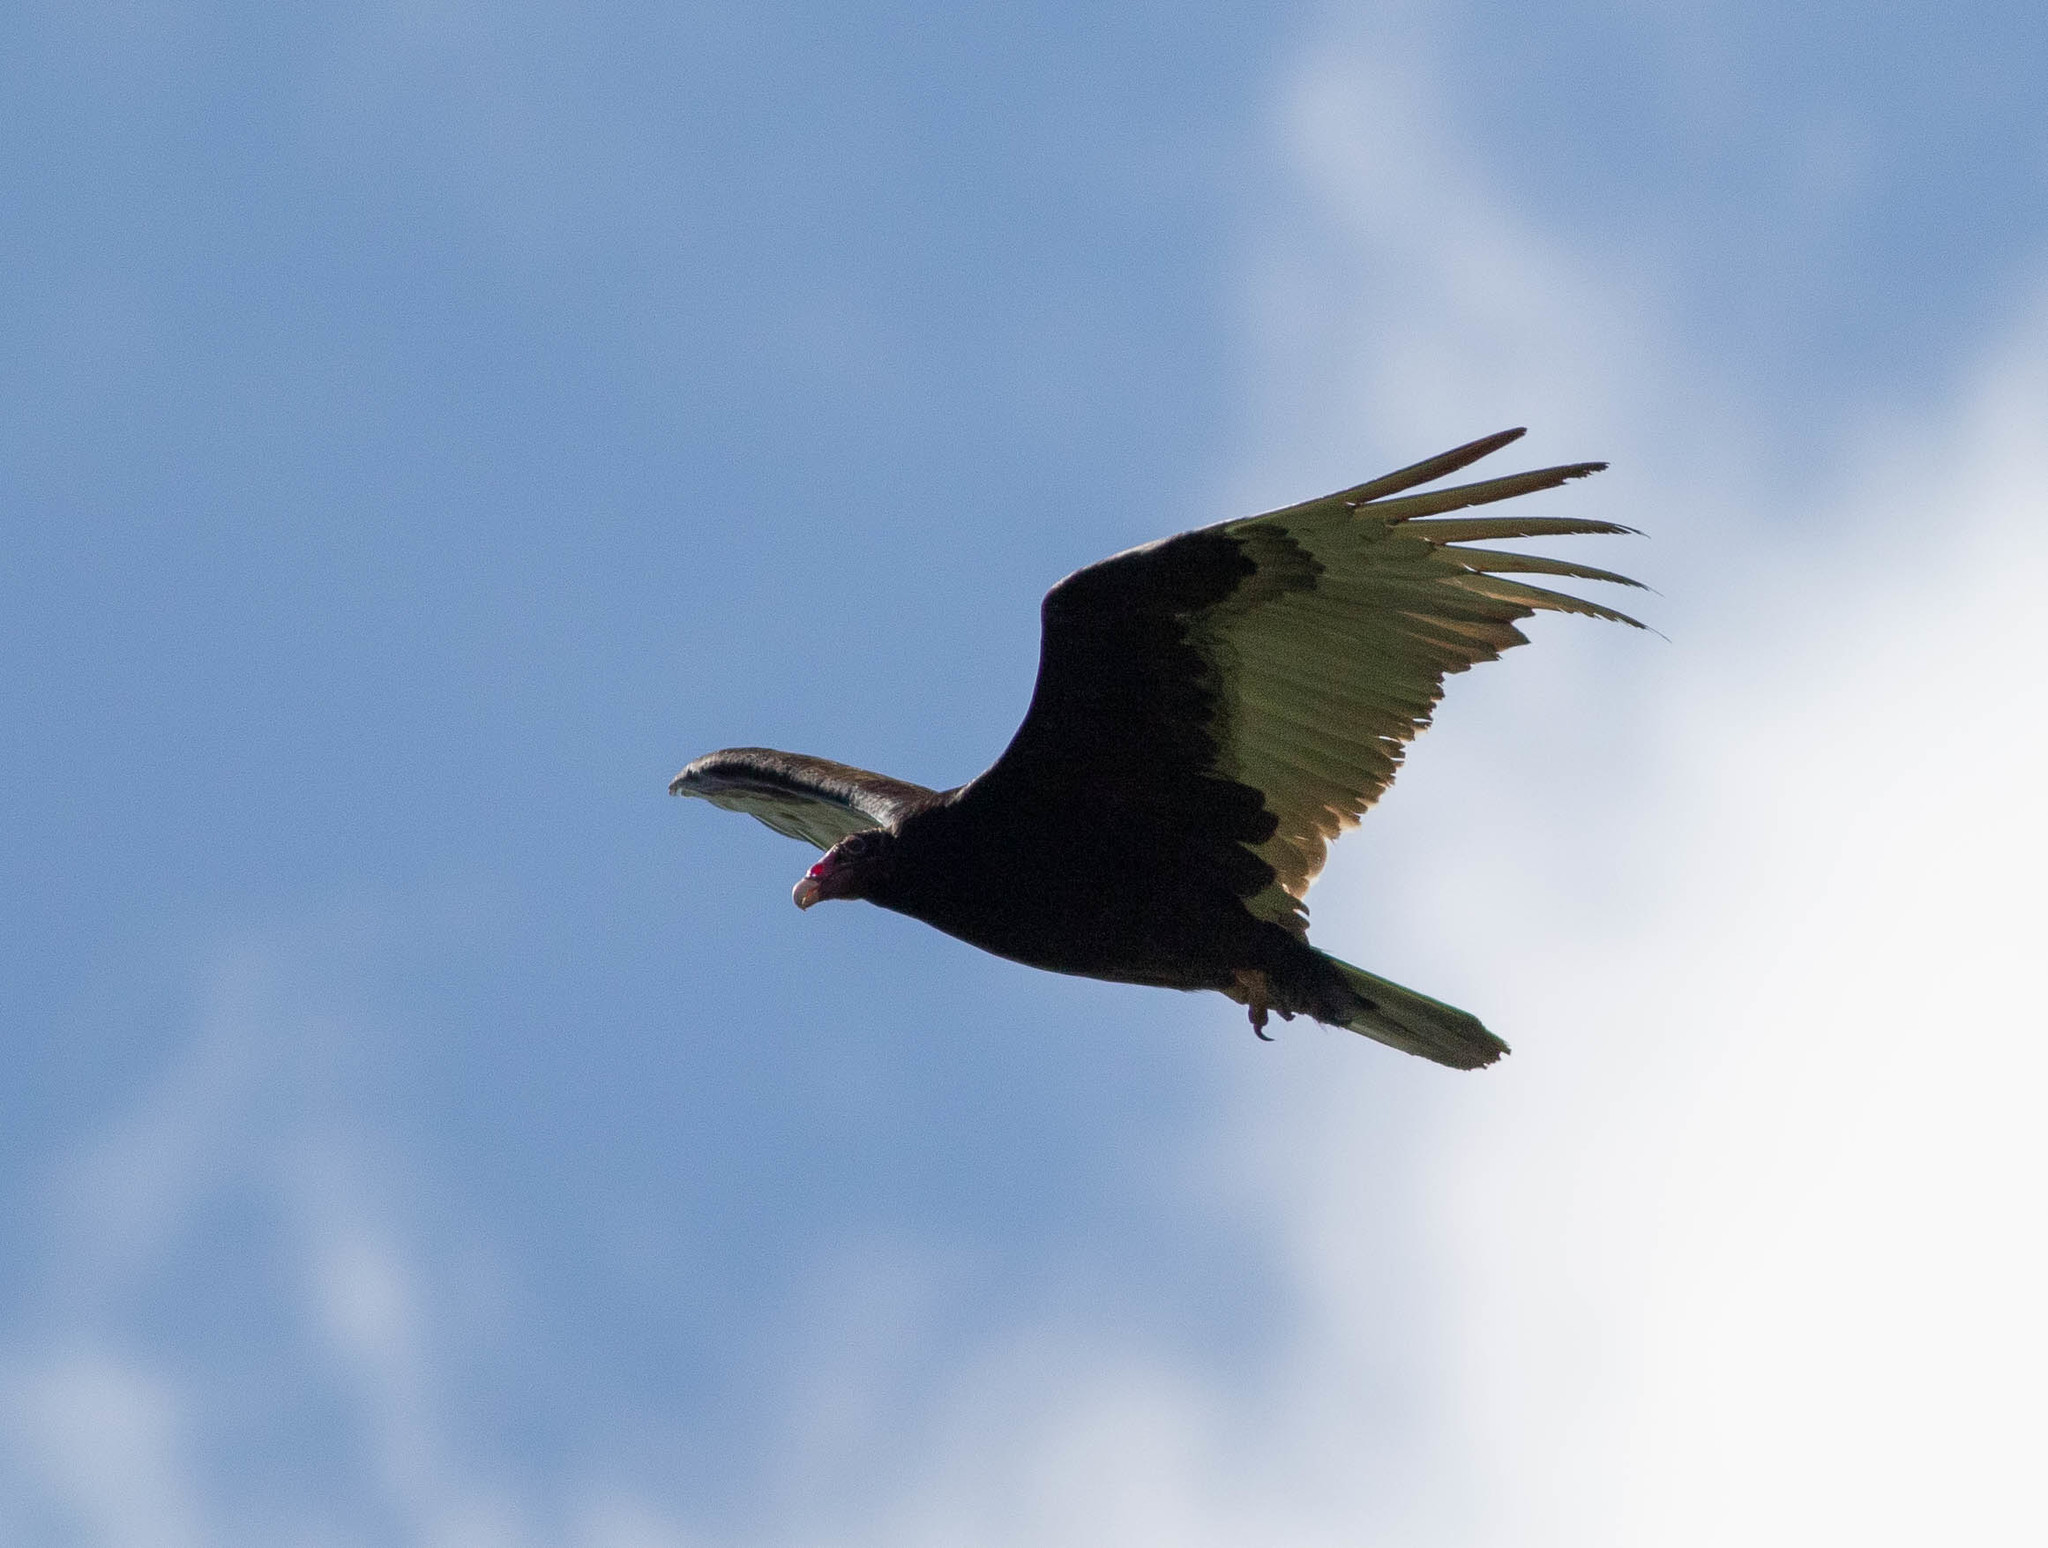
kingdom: Animalia
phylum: Chordata
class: Aves
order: Accipitriformes
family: Cathartidae
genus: Cathartes
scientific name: Cathartes aura
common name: Turkey vulture
